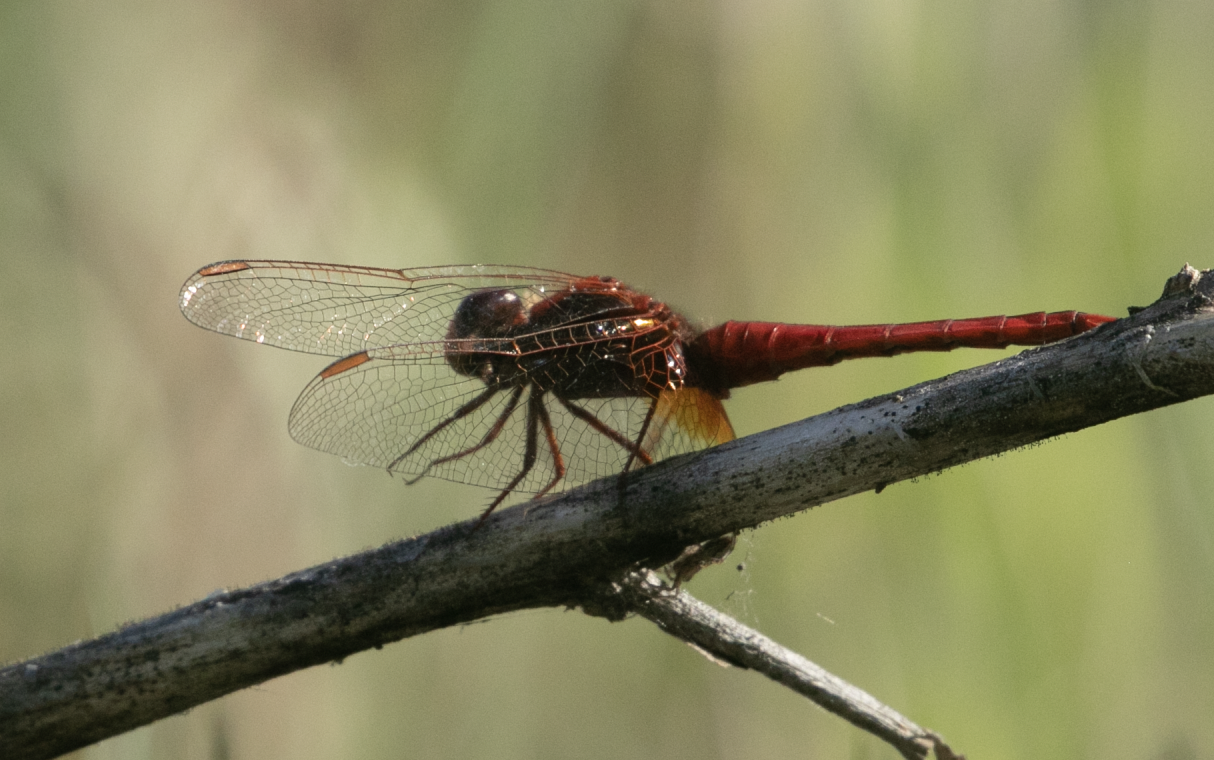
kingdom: Animalia
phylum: Arthropoda
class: Insecta
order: Odonata
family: Libellulidae
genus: Crocothemis
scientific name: Crocothemis erythraea
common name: Scarlet dragonfly
